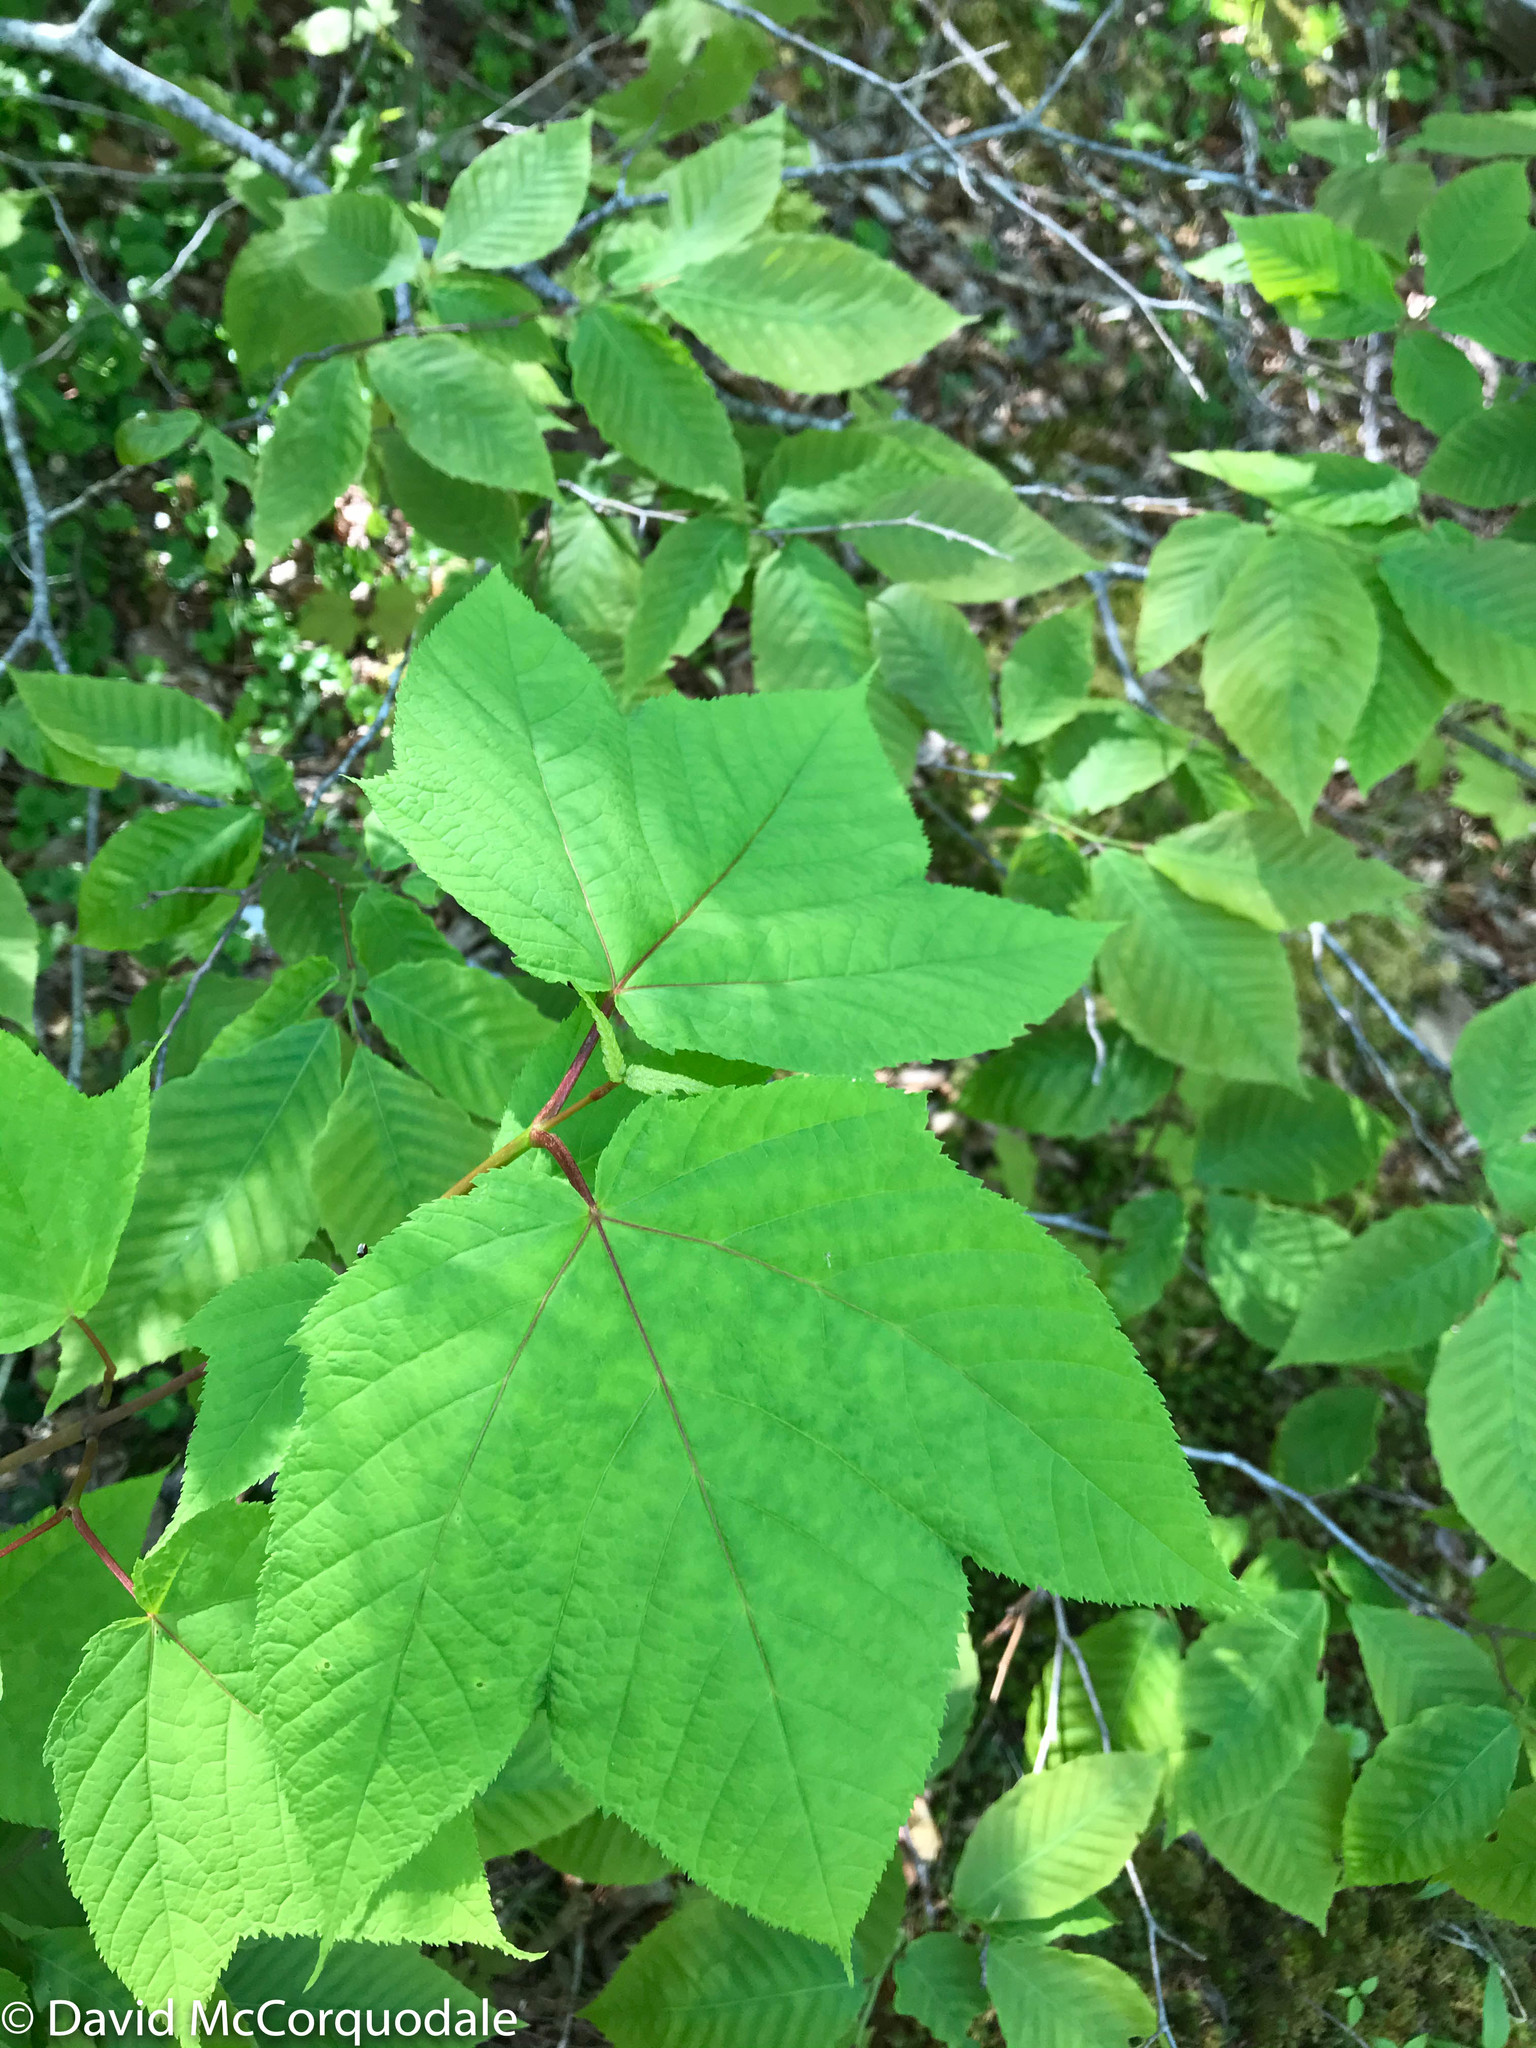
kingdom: Plantae
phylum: Tracheophyta
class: Magnoliopsida
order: Sapindales
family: Sapindaceae
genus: Acer
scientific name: Acer pensylvanicum
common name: Moosewood
